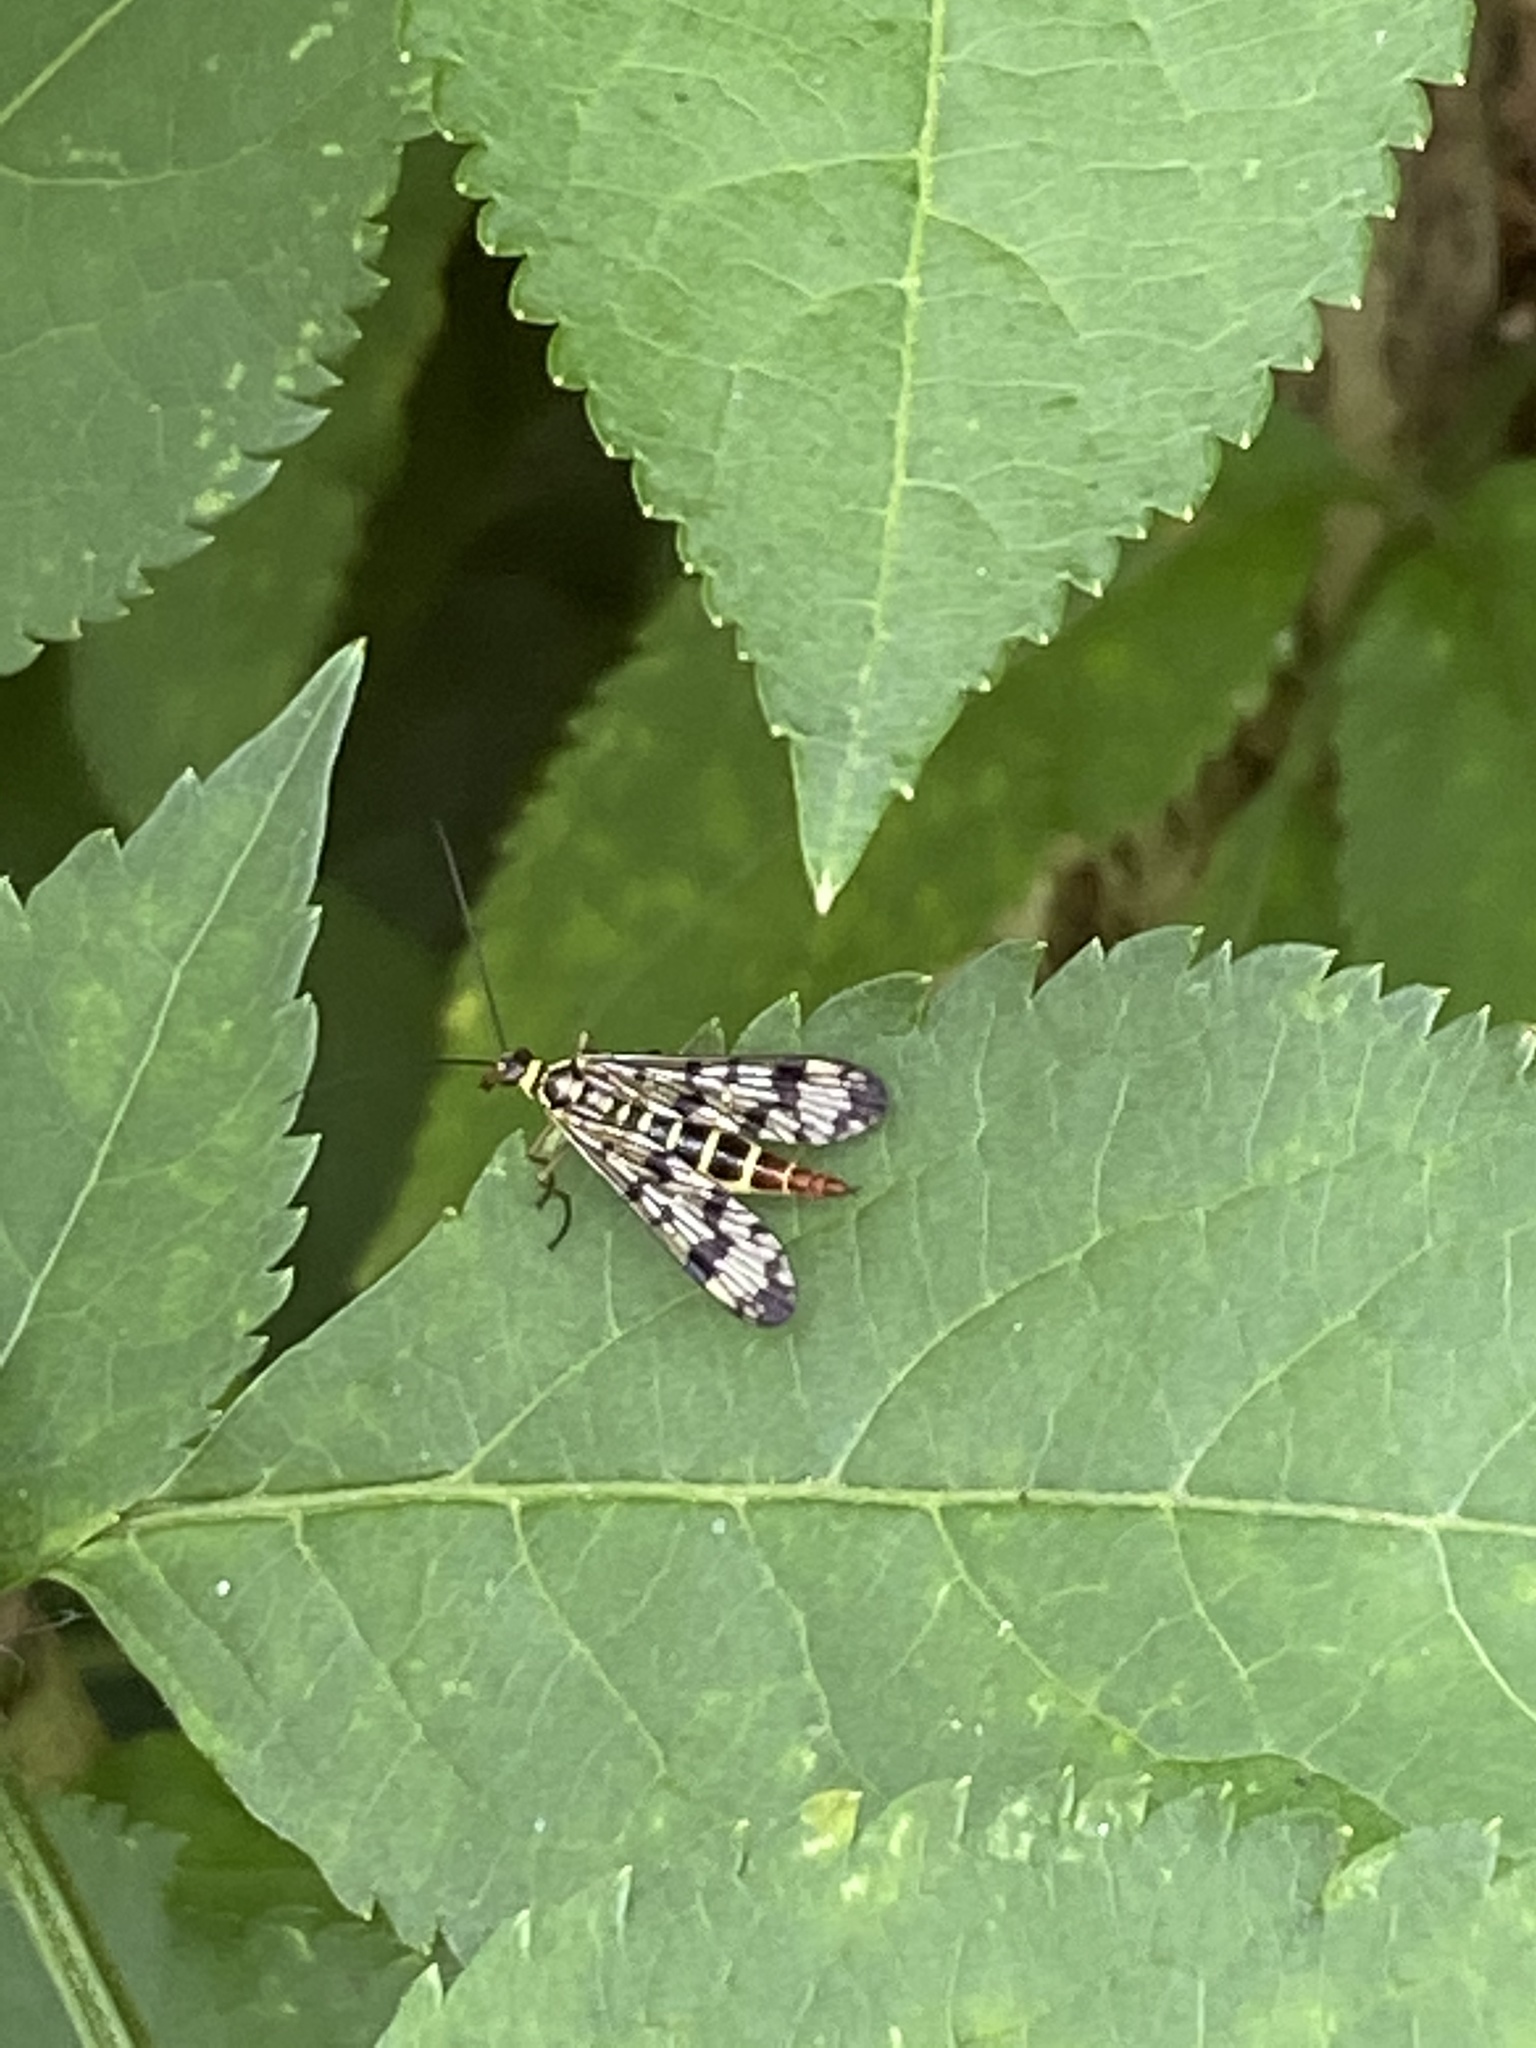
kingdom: Animalia
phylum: Arthropoda
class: Insecta
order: Mecoptera
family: Panorpidae
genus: Panorpa
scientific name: Panorpa communis
